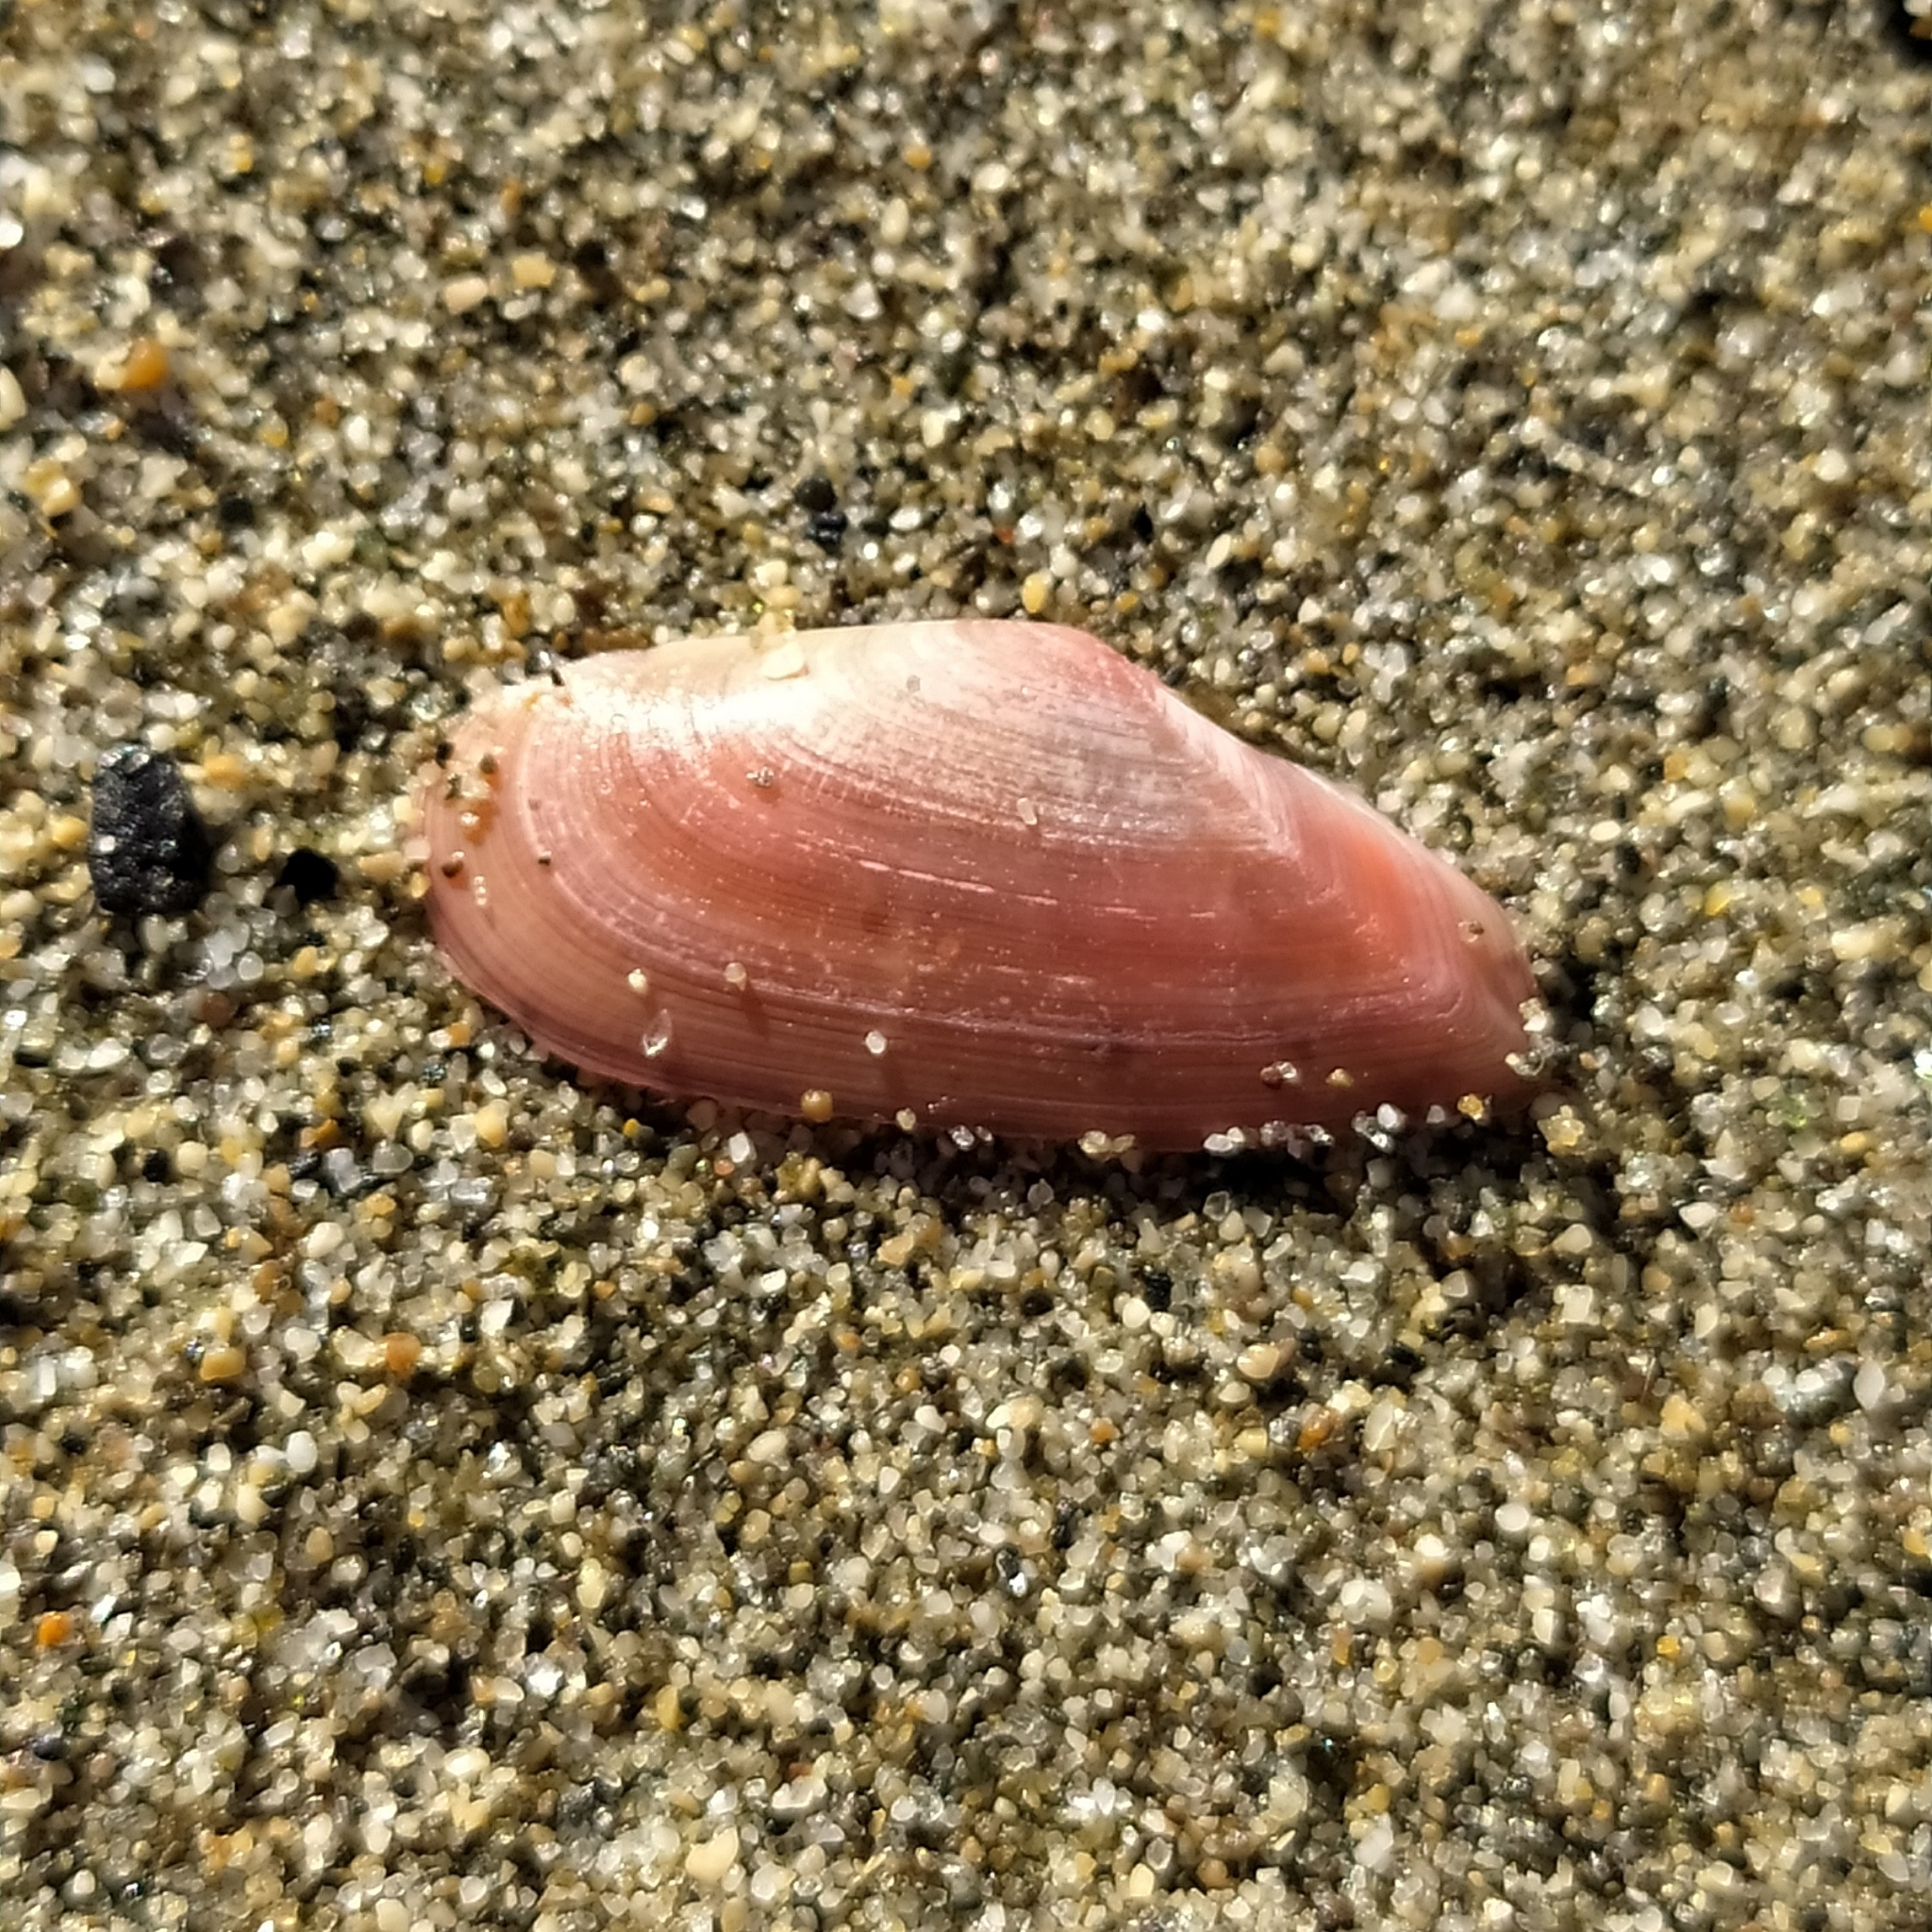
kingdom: Animalia
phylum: Mollusca
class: Bivalvia
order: Cardiida
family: Tellinidae
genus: Moerella
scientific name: Moerella pulchella
